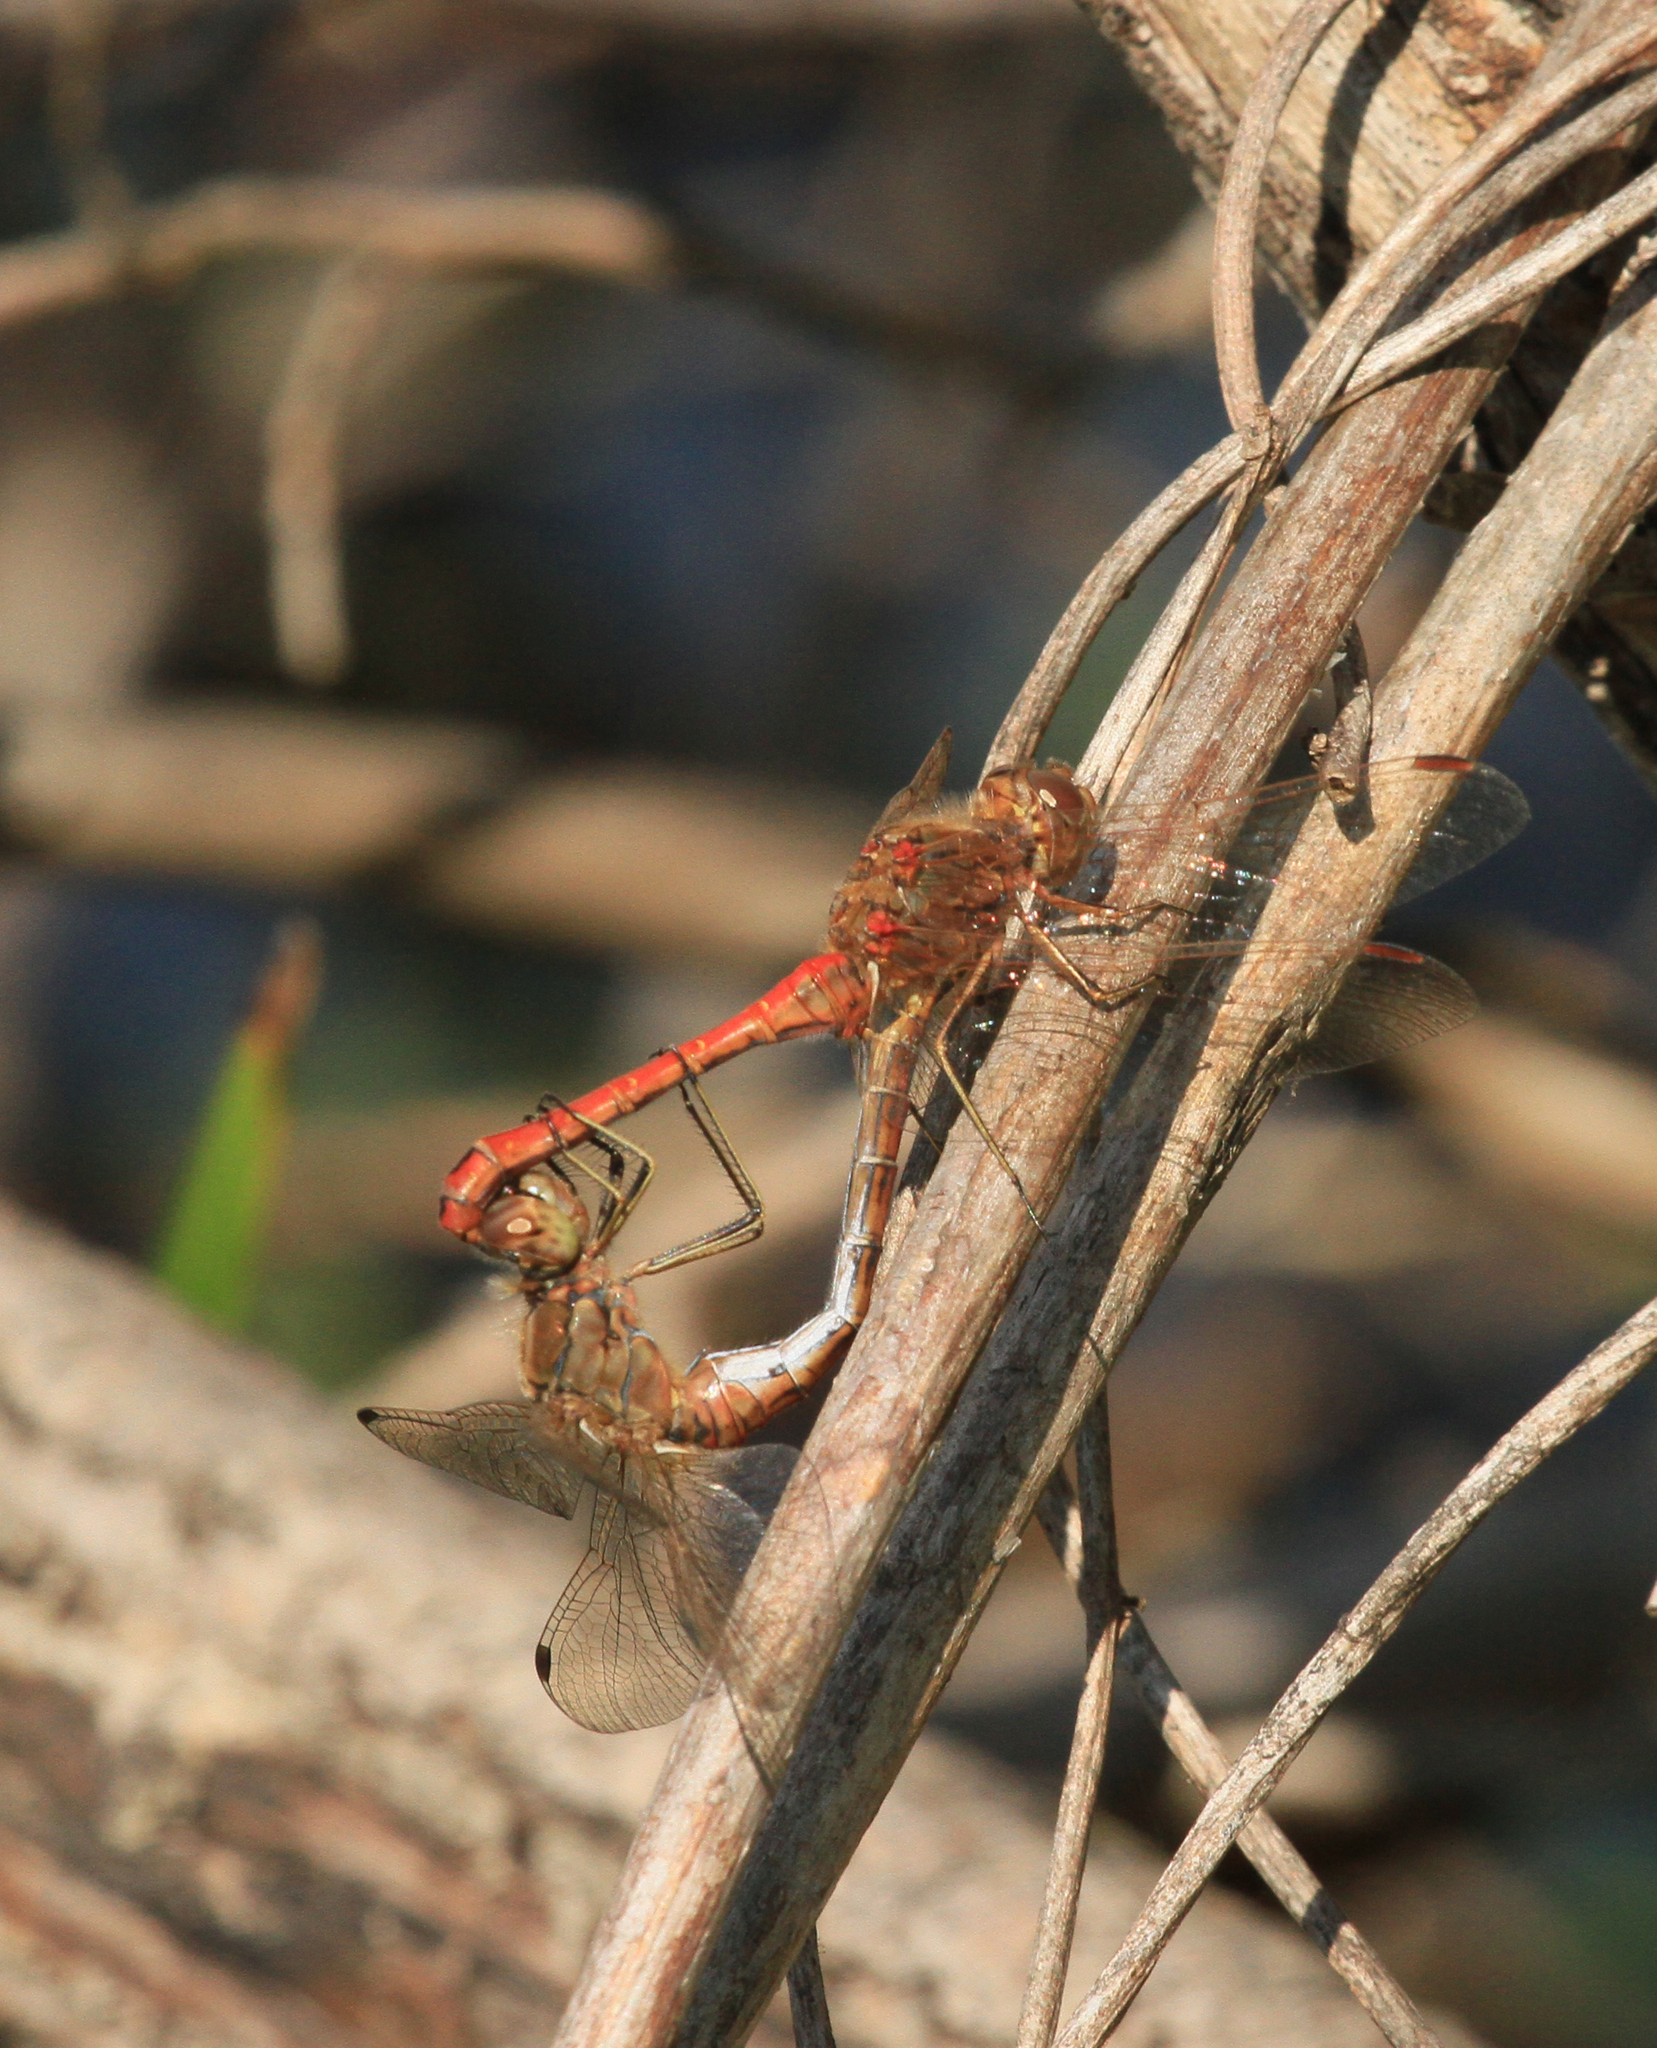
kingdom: Animalia
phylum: Arthropoda
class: Insecta
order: Odonata
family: Libellulidae
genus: Sympetrum
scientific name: Sympetrum vulgatum
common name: Vagrant darter
